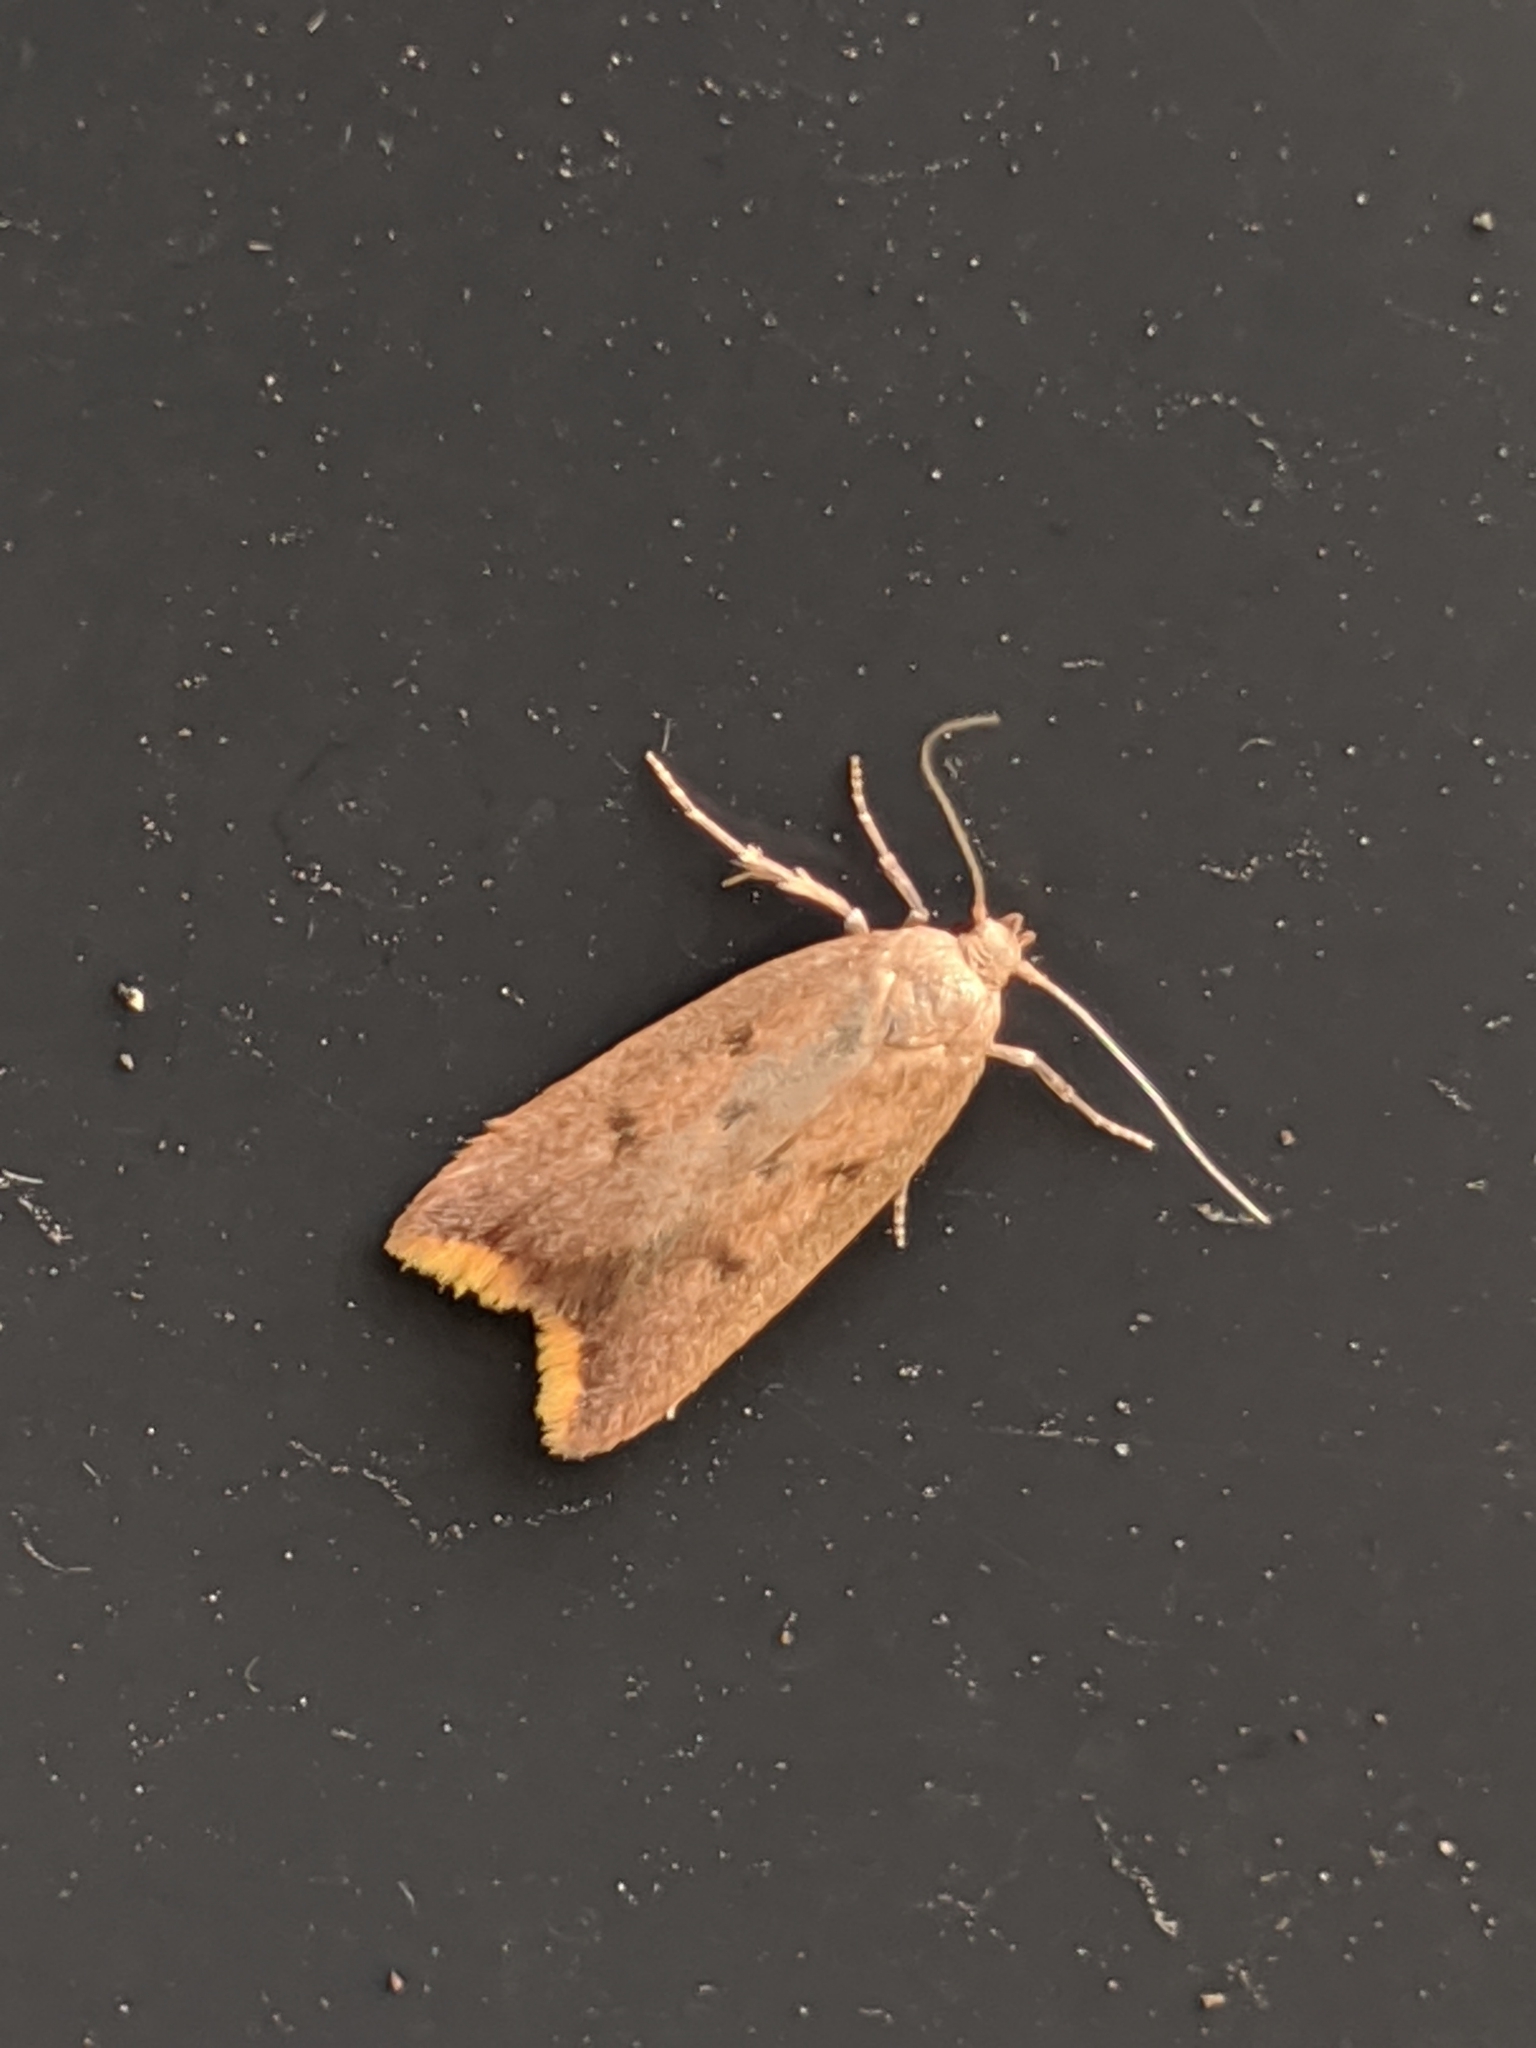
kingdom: Animalia
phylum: Arthropoda
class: Insecta
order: Lepidoptera
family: Oecophoridae
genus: Tachystola
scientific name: Tachystola acroxantha
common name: Ruddy streak
